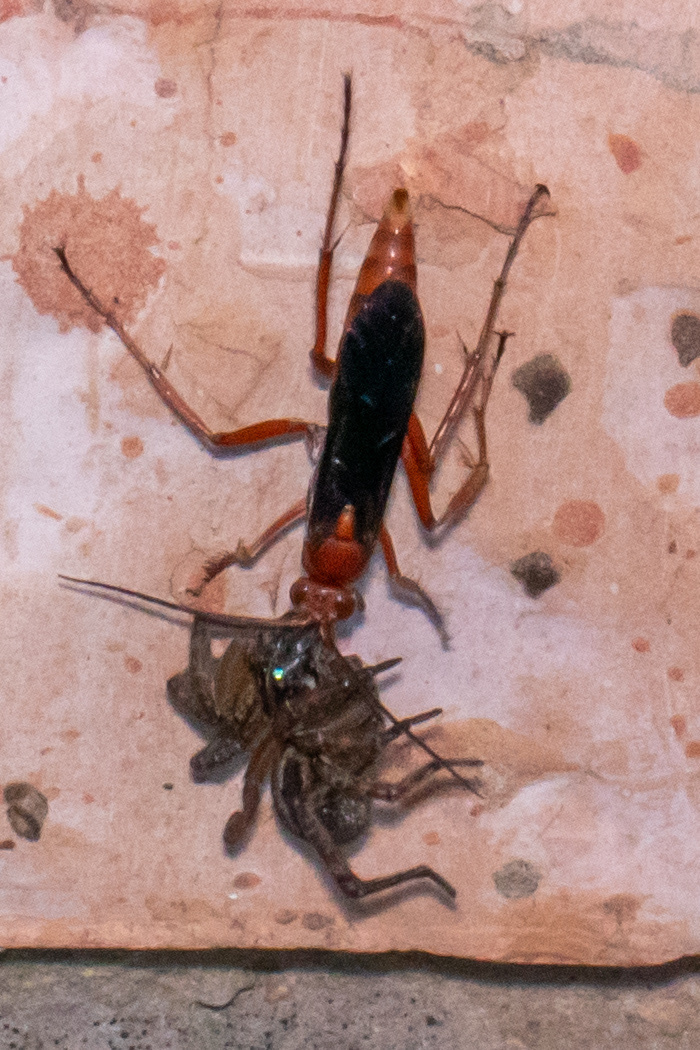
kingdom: Animalia
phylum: Arthropoda
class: Insecta
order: Hymenoptera
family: Pompilidae
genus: Tachypompilus
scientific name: Tachypompilus ferrugineus
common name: Rusty spider wasp
